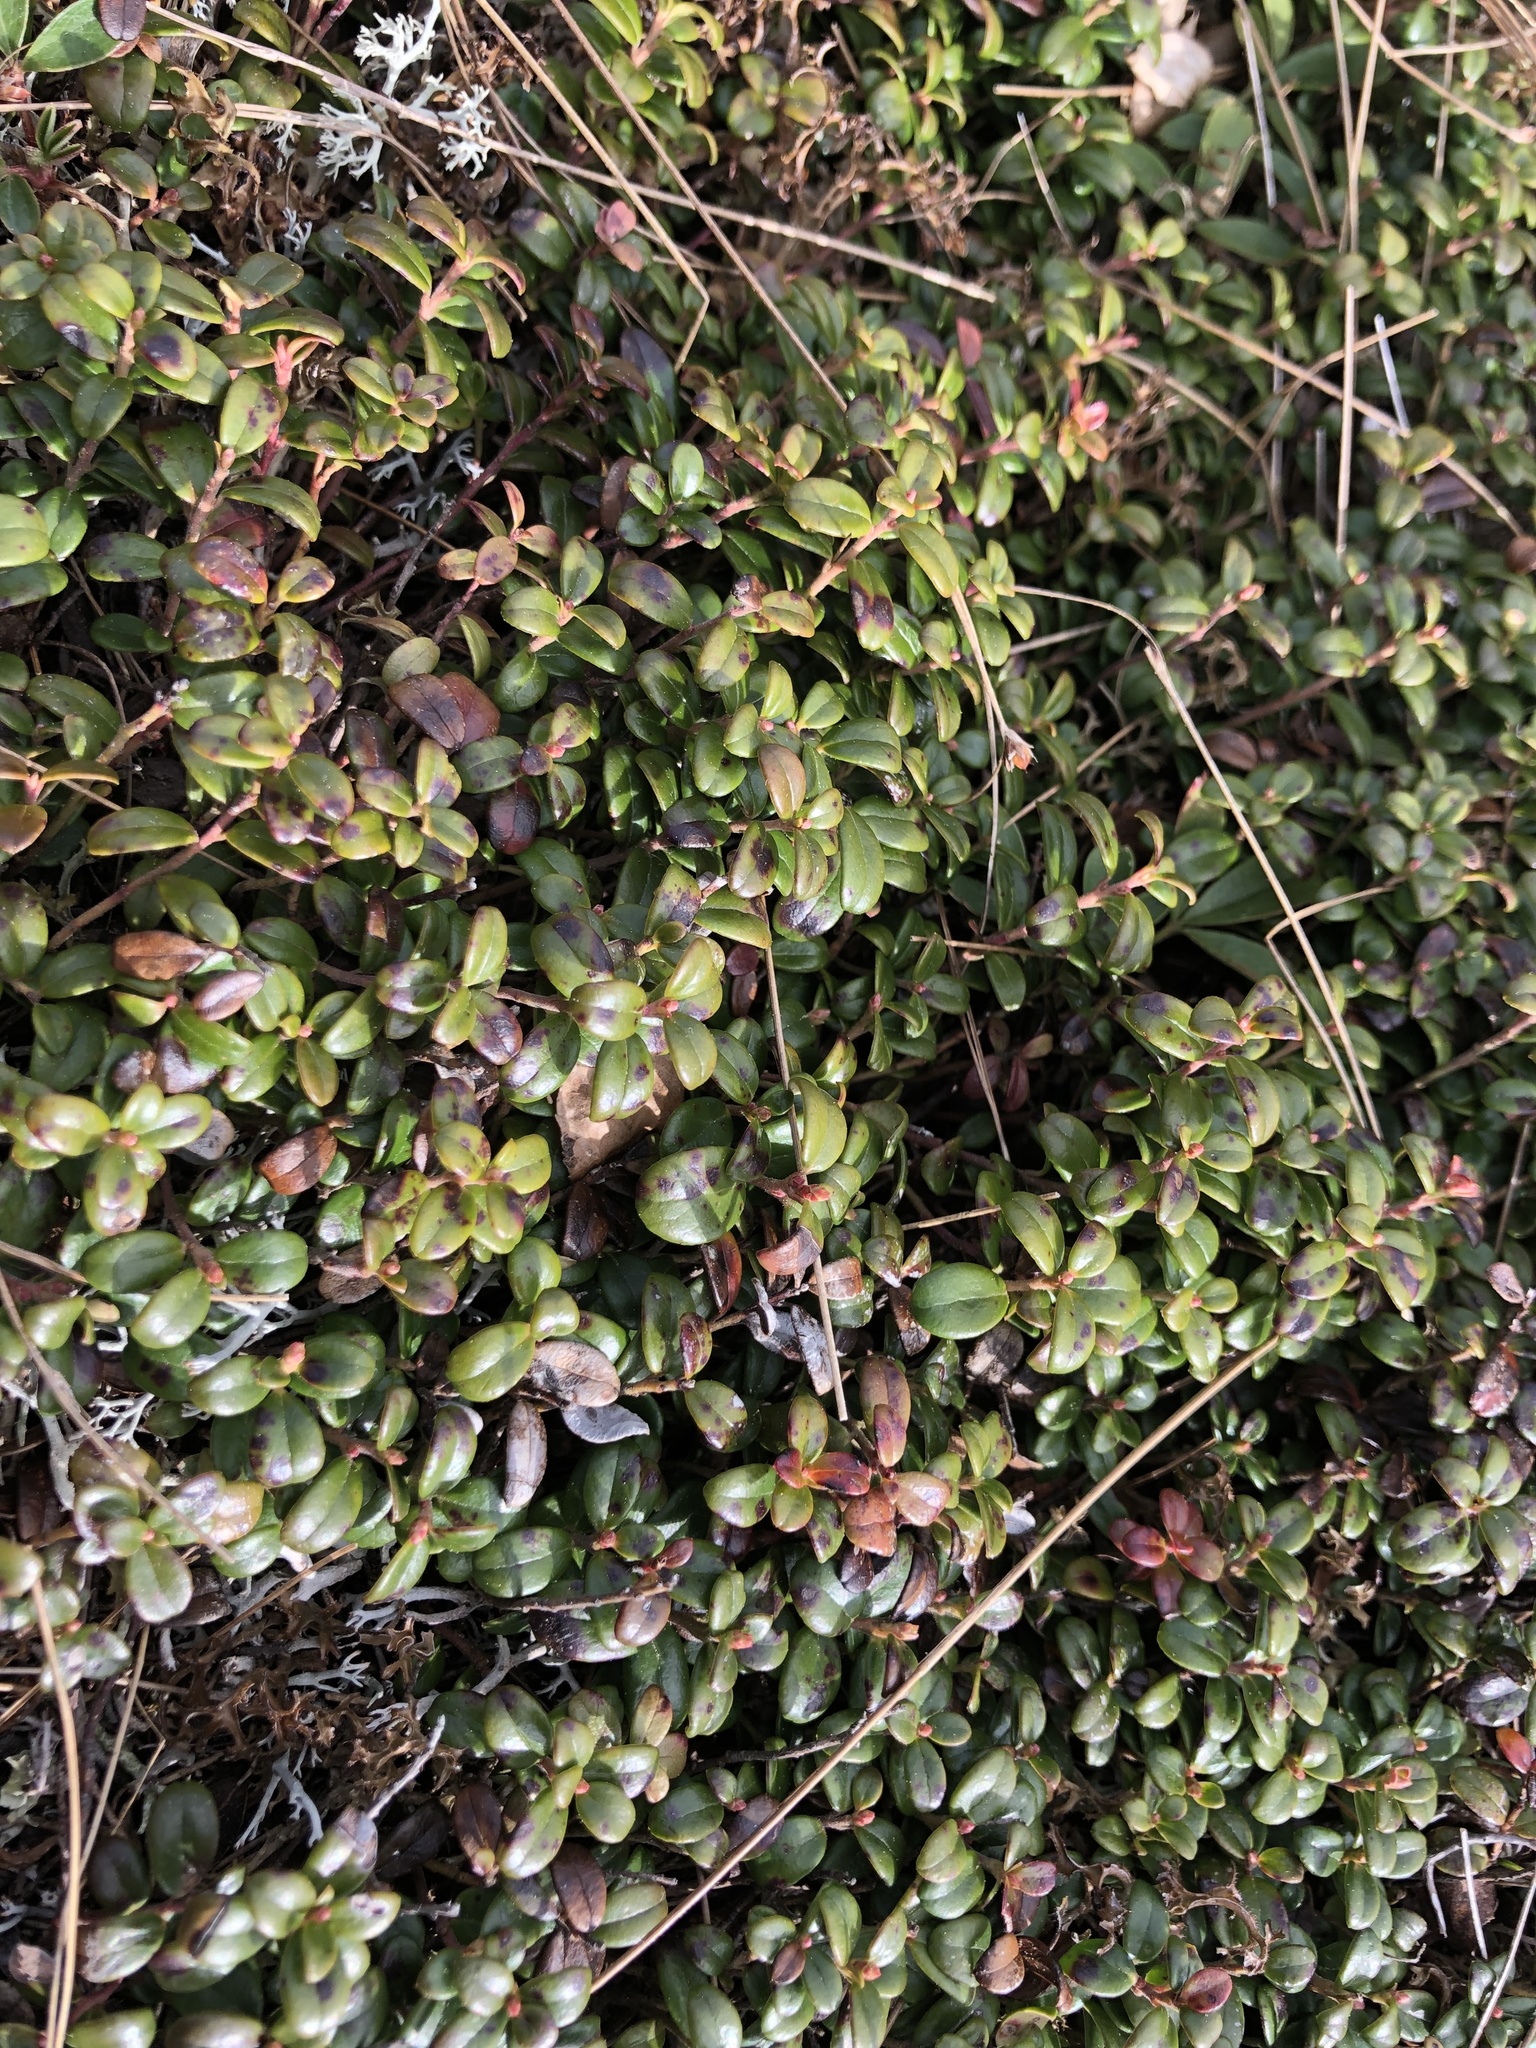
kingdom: Plantae
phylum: Tracheophyta
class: Magnoliopsida
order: Ericales
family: Ericaceae
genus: Vaccinium
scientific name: Vaccinium vitis-idaea
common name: Cowberry
